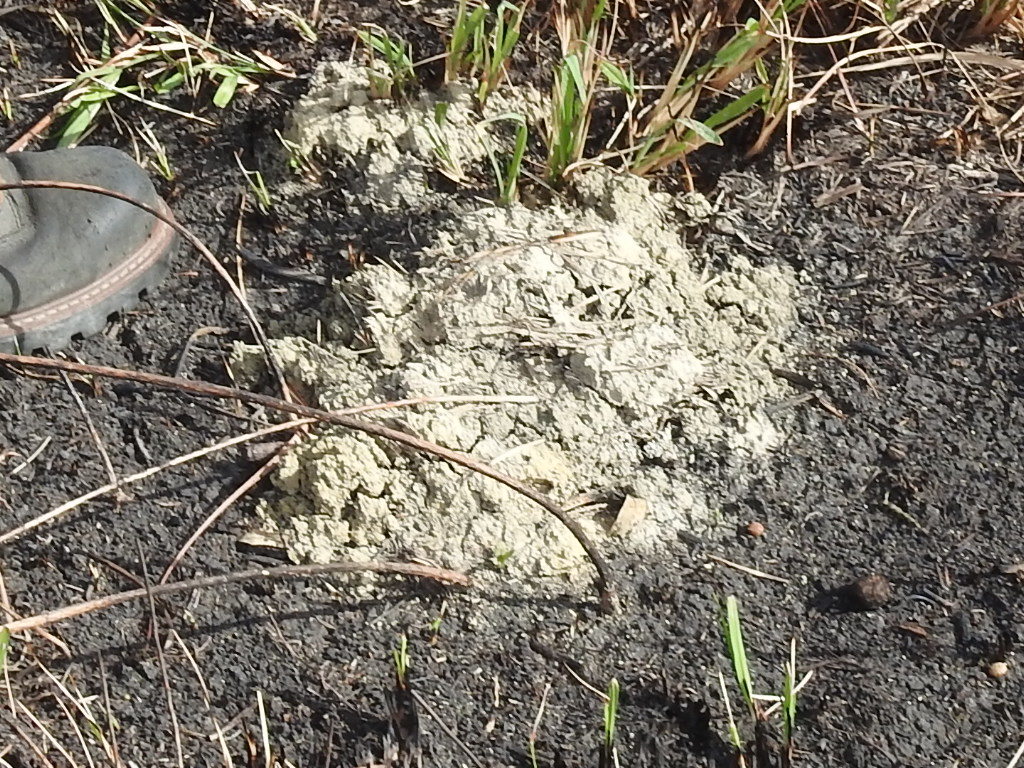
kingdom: Animalia
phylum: Arthropoda
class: Malacostraca
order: Decapoda
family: Cambaridae
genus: Procambarus
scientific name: Procambarus steigmani
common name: Parkhill prairie crayfish
